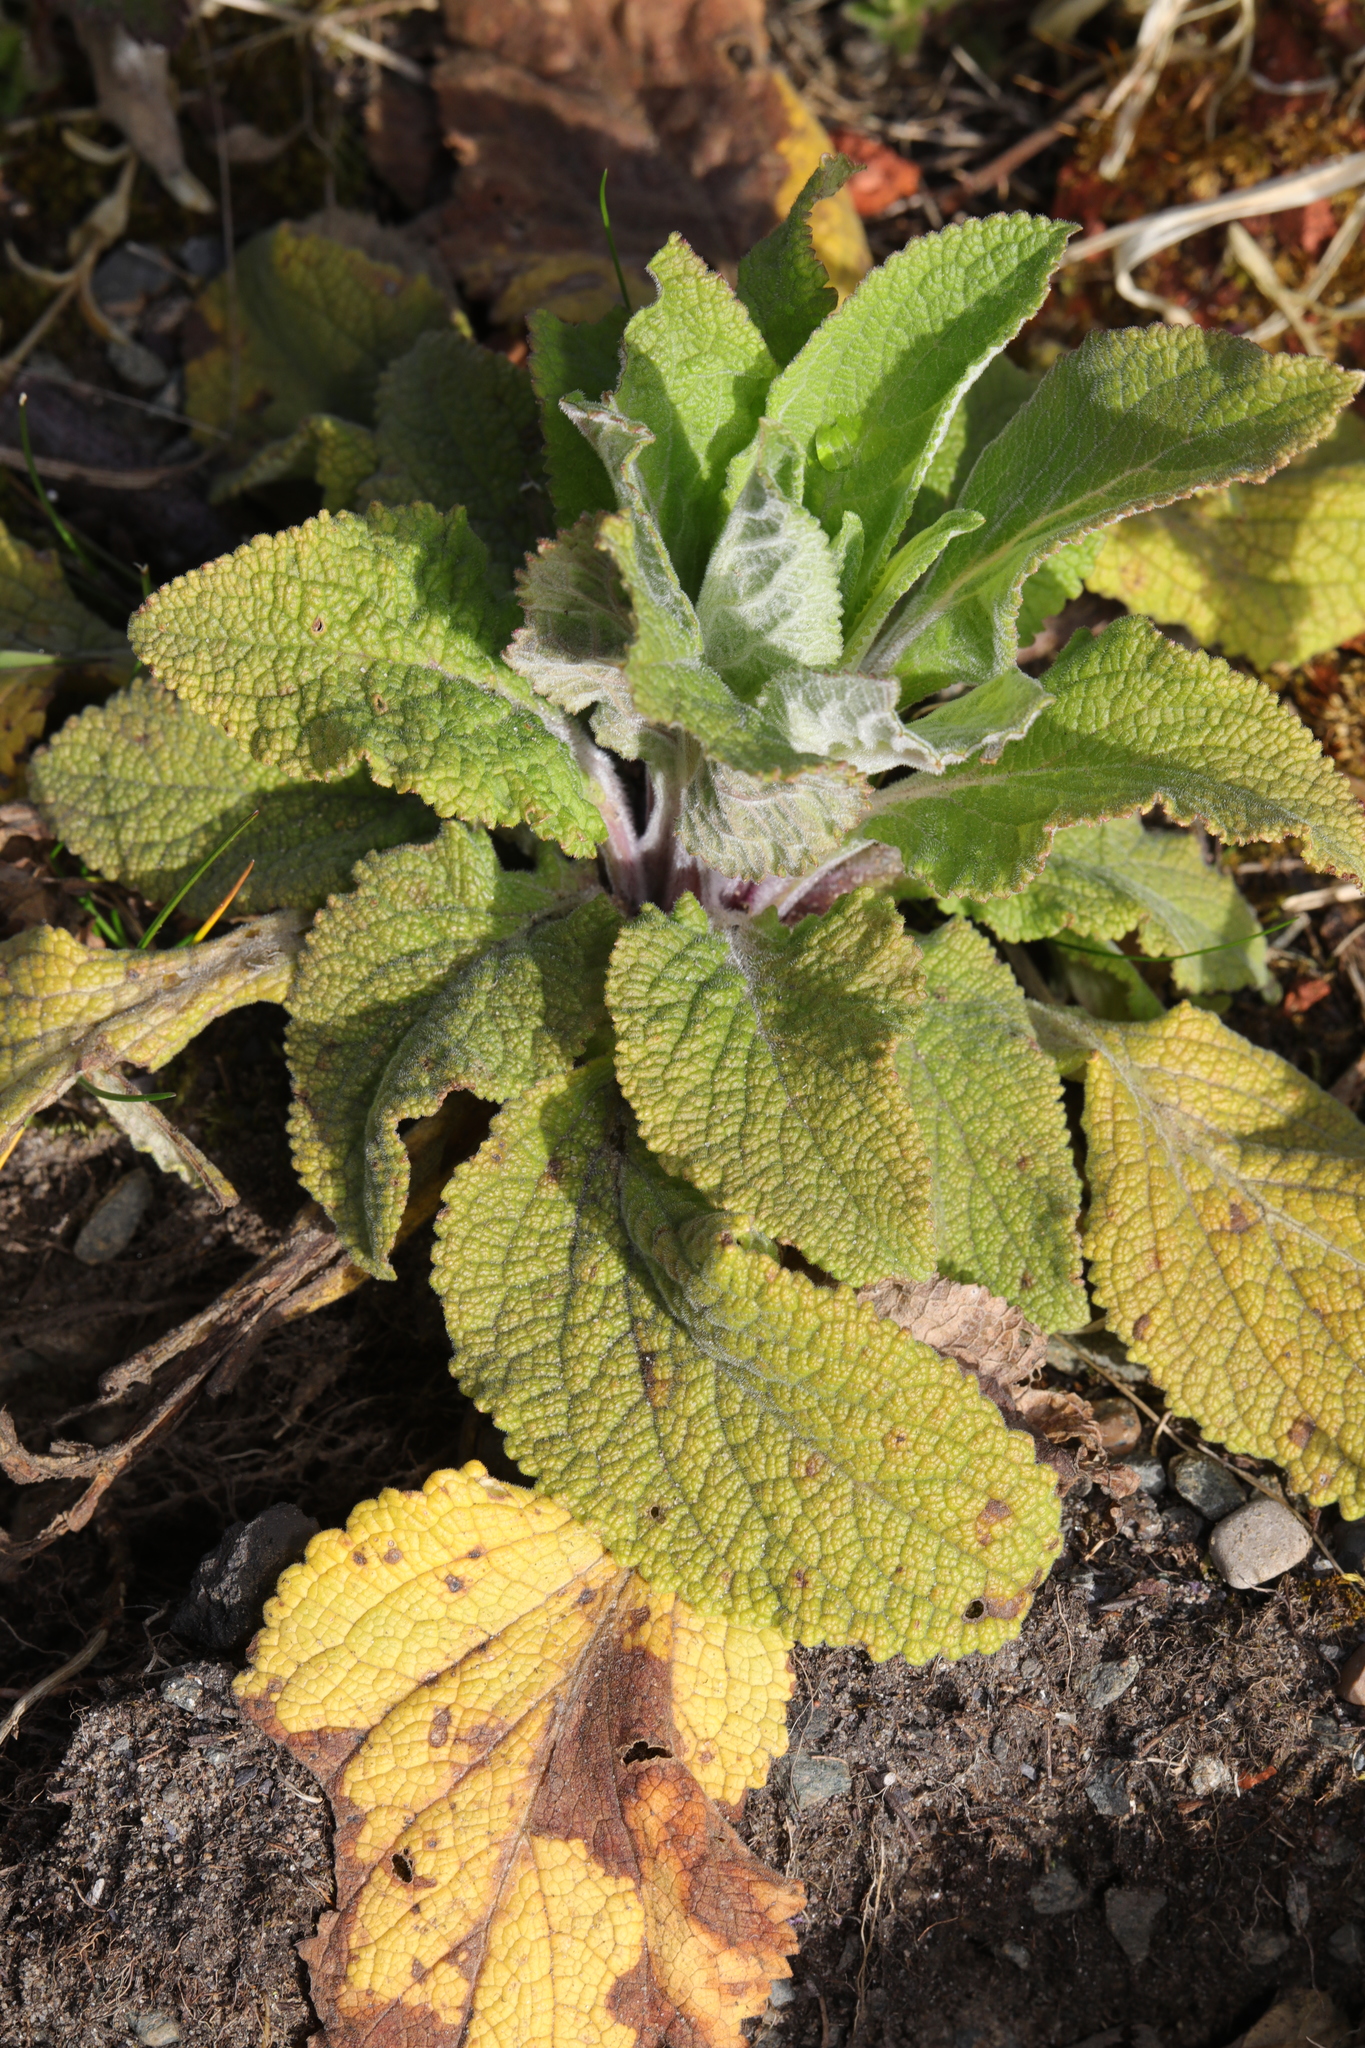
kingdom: Plantae
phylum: Tracheophyta
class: Magnoliopsida
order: Lamiales
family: Plantaginaceae
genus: Digitalis
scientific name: Digitalis purpurea
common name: Foxglove
